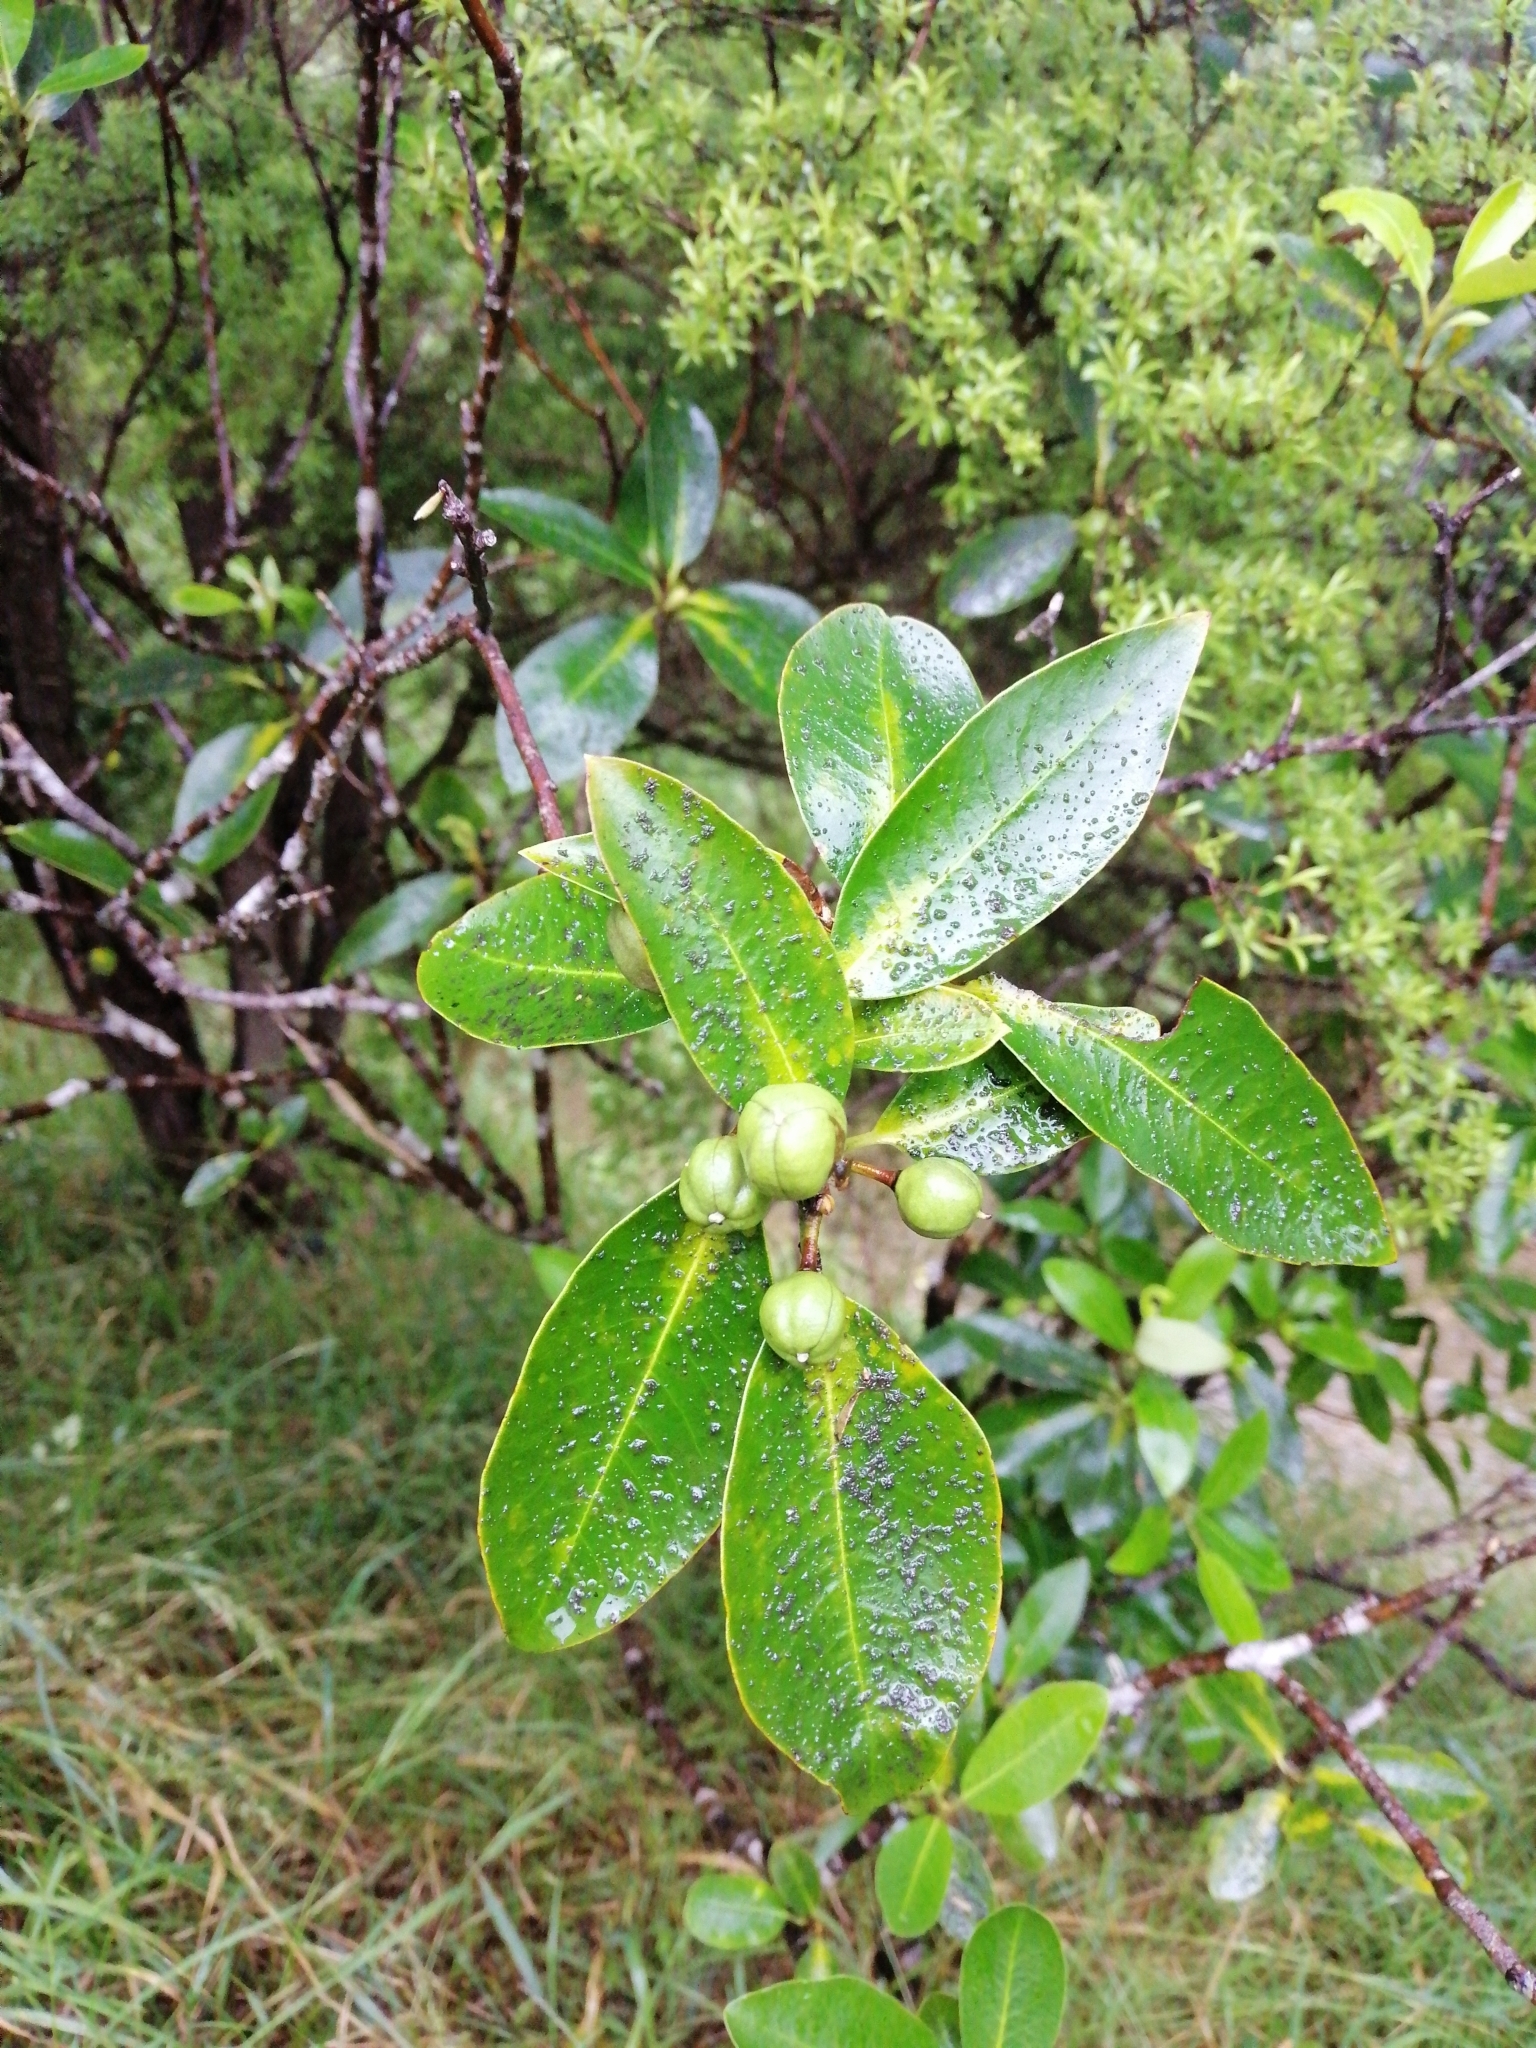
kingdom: Plantae
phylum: Tracheophyta
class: Magnoliopsida
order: Apiales
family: Pittosporaceae
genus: Pittosporum
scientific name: Pittosporum colensoi
